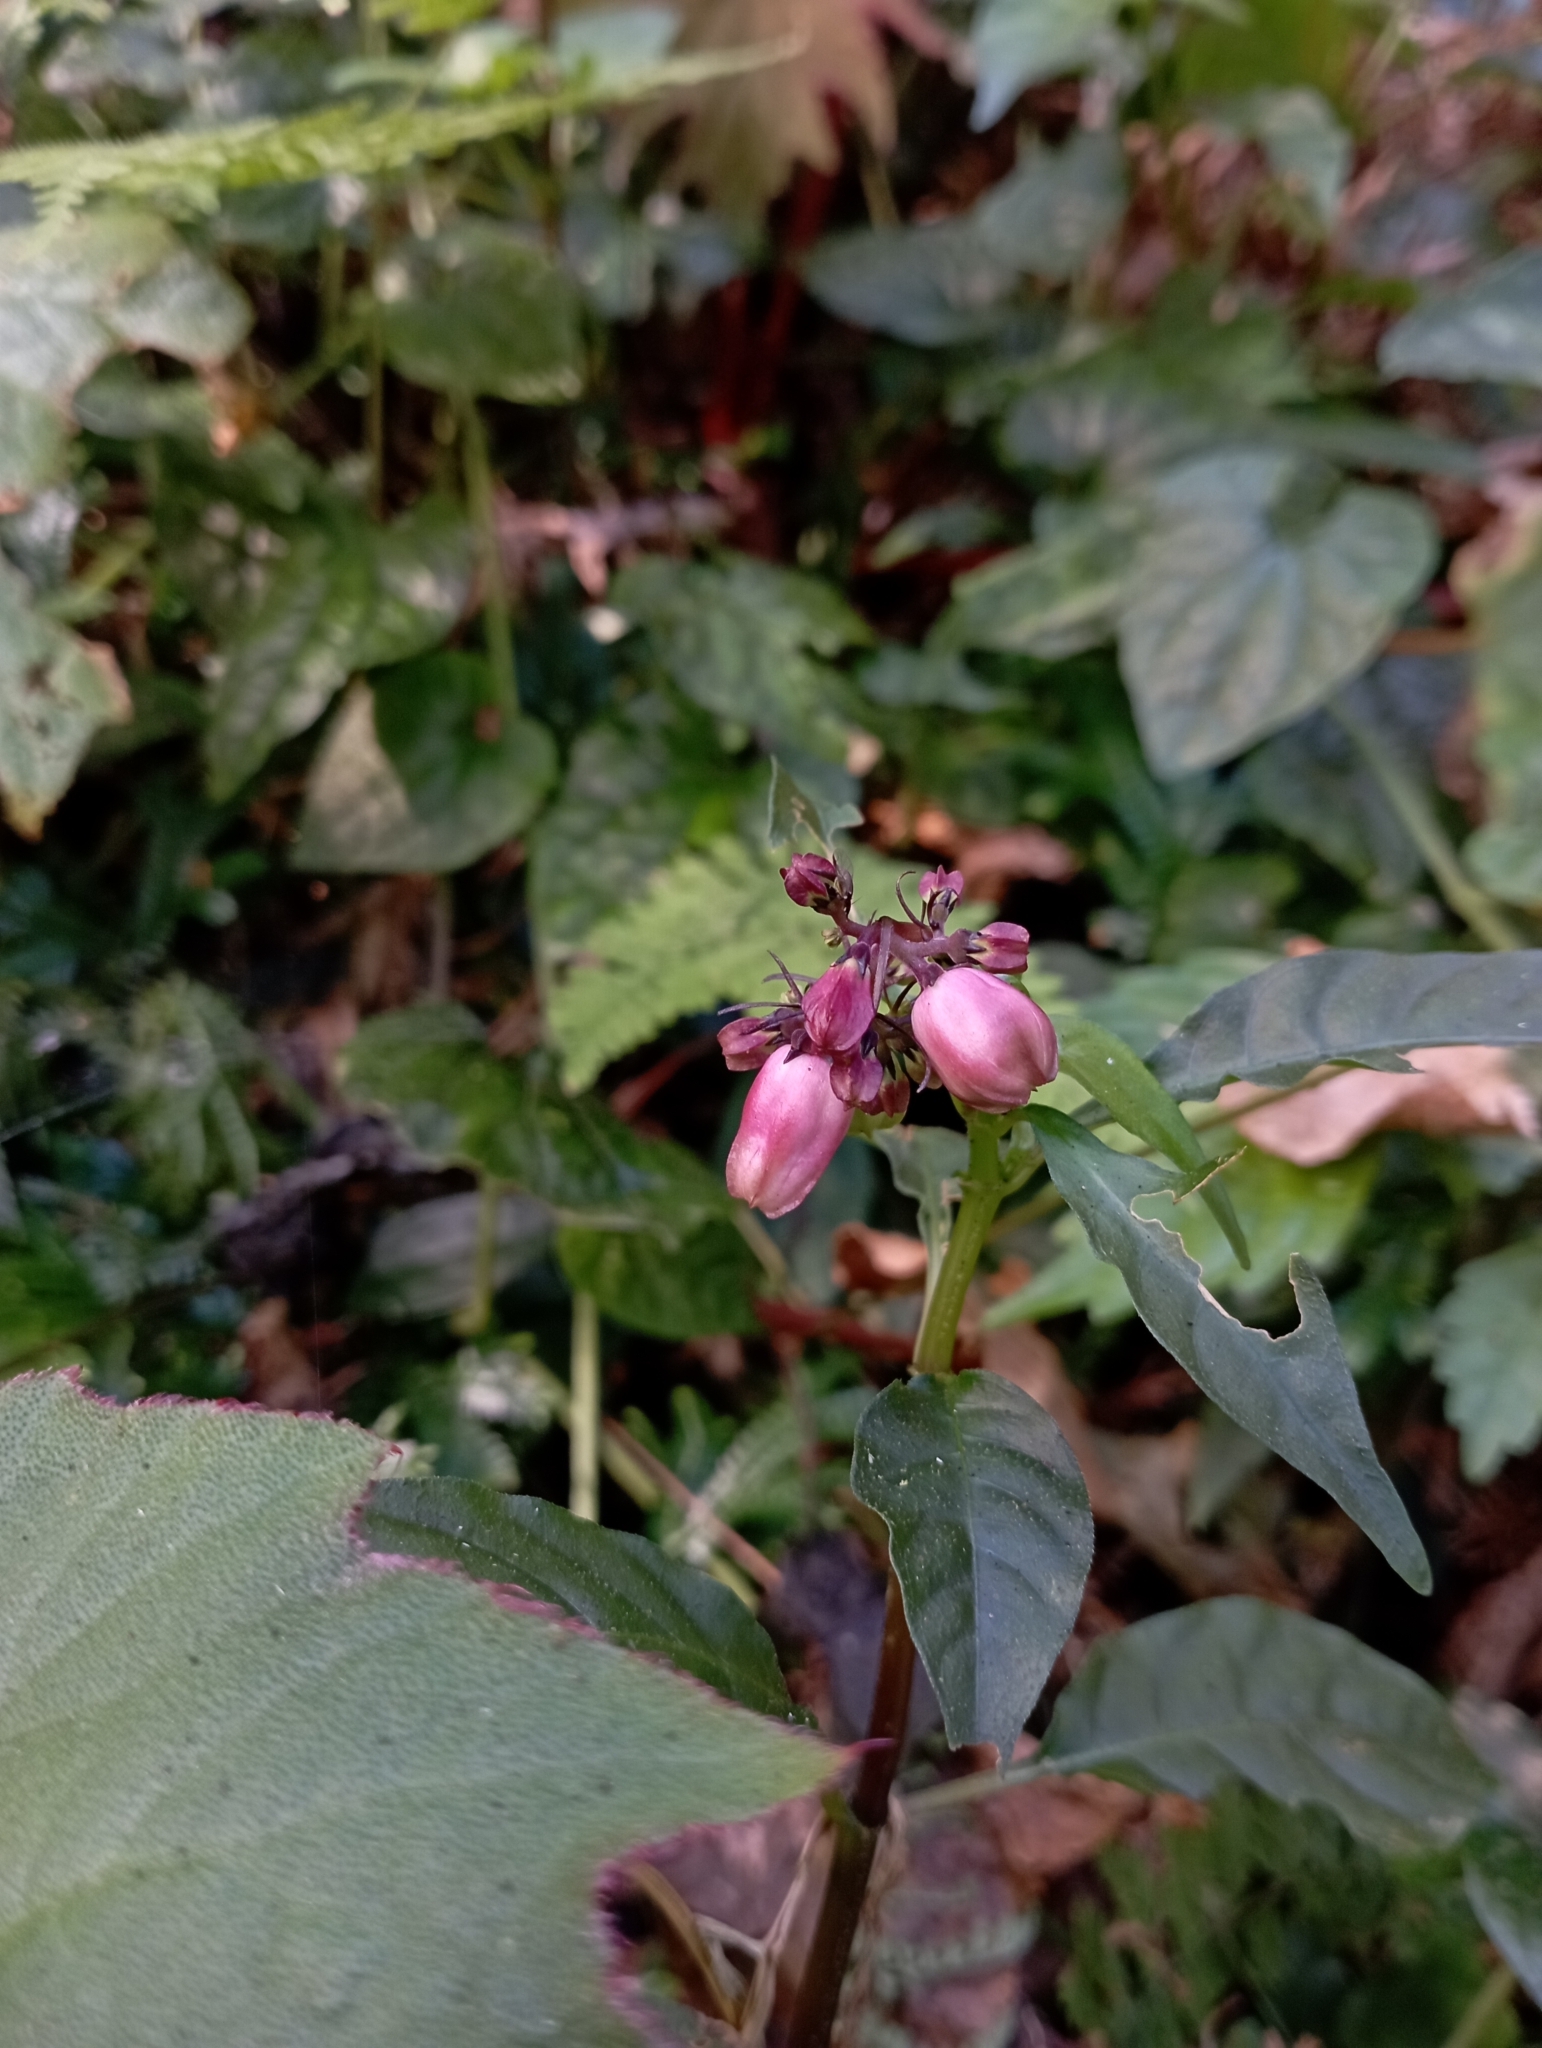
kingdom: Plantae
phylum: Tracheophyta
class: Magnoliopsida
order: Gentianales
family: Rubiaceae
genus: Ophiorrhiza
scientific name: Ophiorrhiza japonica
